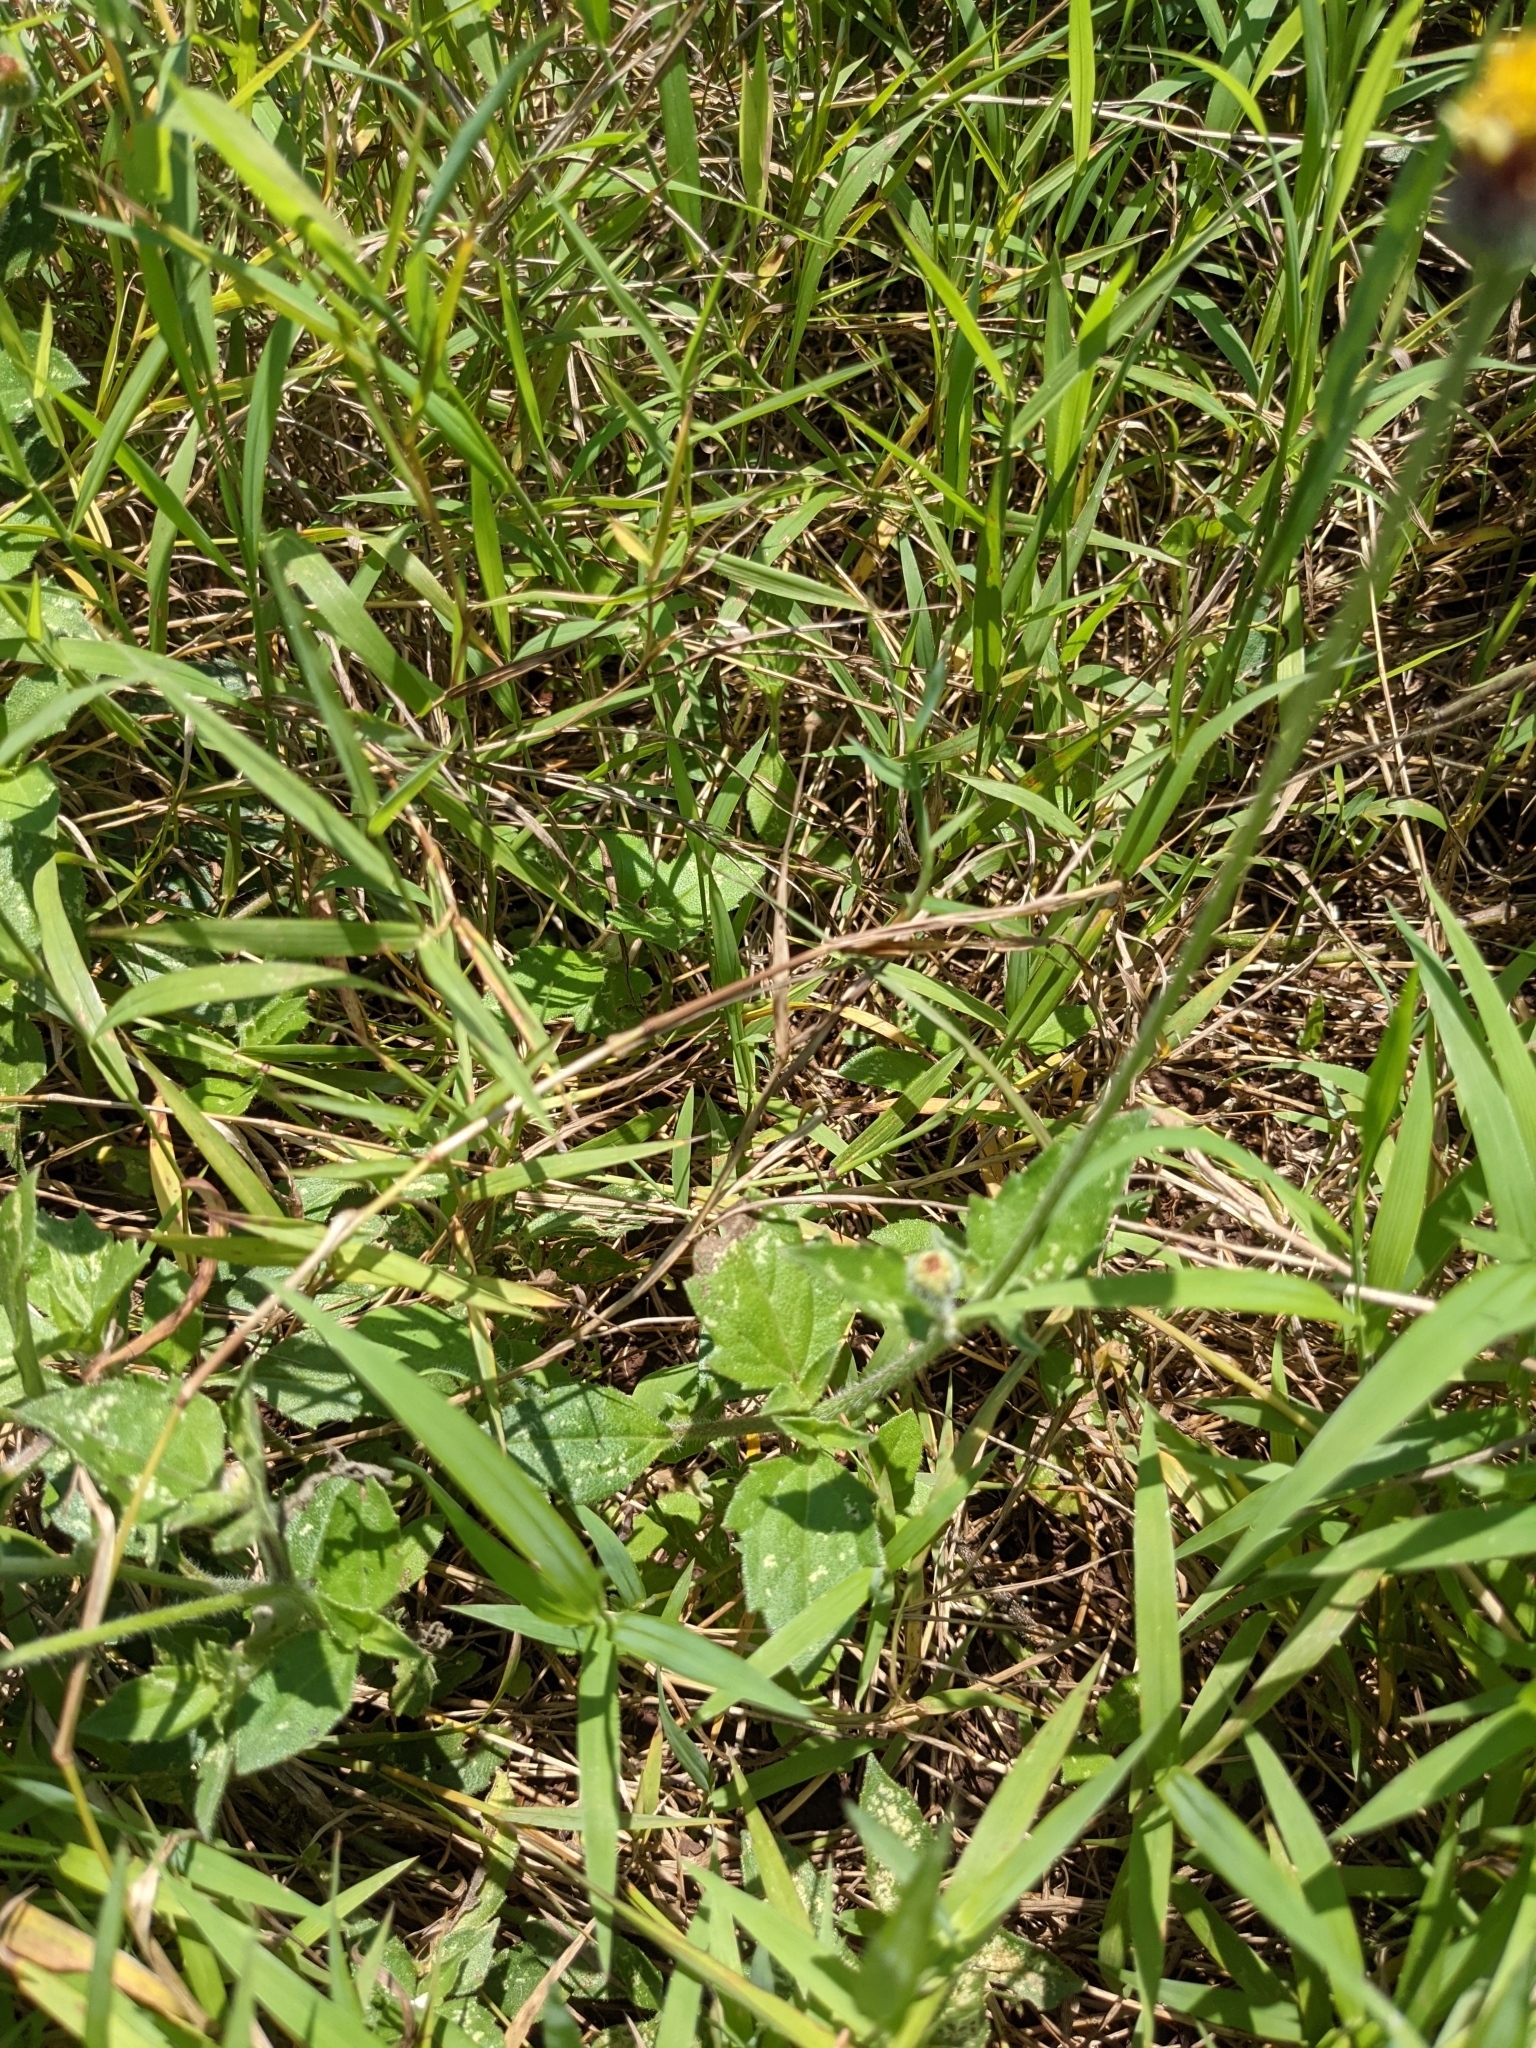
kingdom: Plantae
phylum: Tracheophyta
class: Magnoliopsida
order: Asterales
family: Asteraceae
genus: Tridax
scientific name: Tridax procumbens
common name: Coatbuttons
